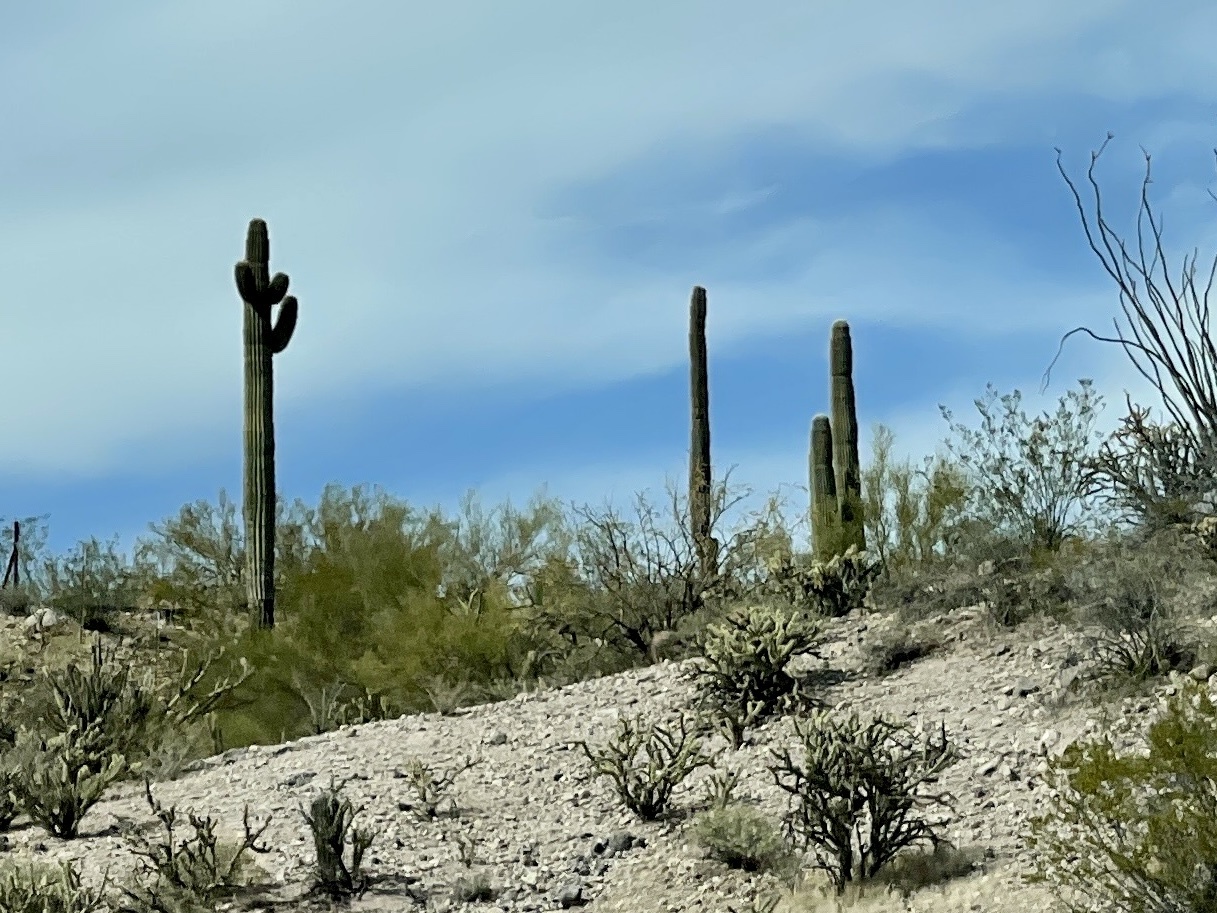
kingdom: Plantae
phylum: Tracheophyta
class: Magnoliopsida
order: Caryophyllales
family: Cactaceae
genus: Carnegiea
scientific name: Carnegiea gigantea
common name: Saguaro
